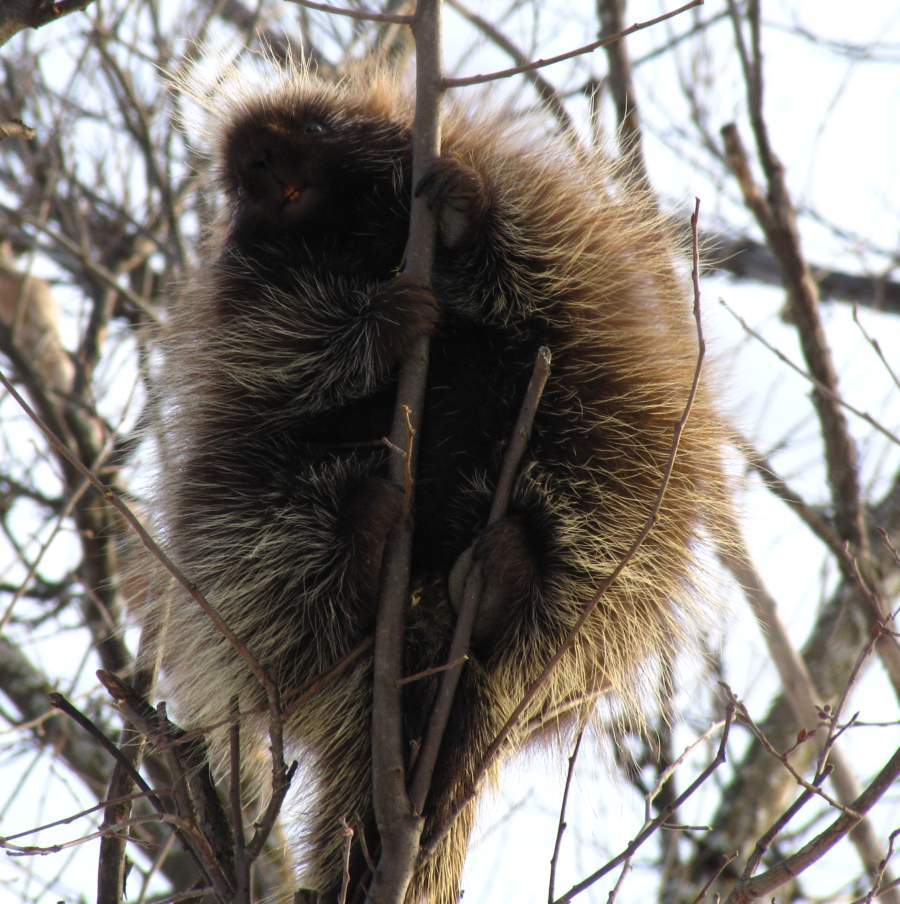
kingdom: Animalia
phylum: Chordata
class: Mammalia
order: Rodentia
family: Erethizontidae
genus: Erethizon
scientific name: Erethizon dorsatus
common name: North american porcupine
